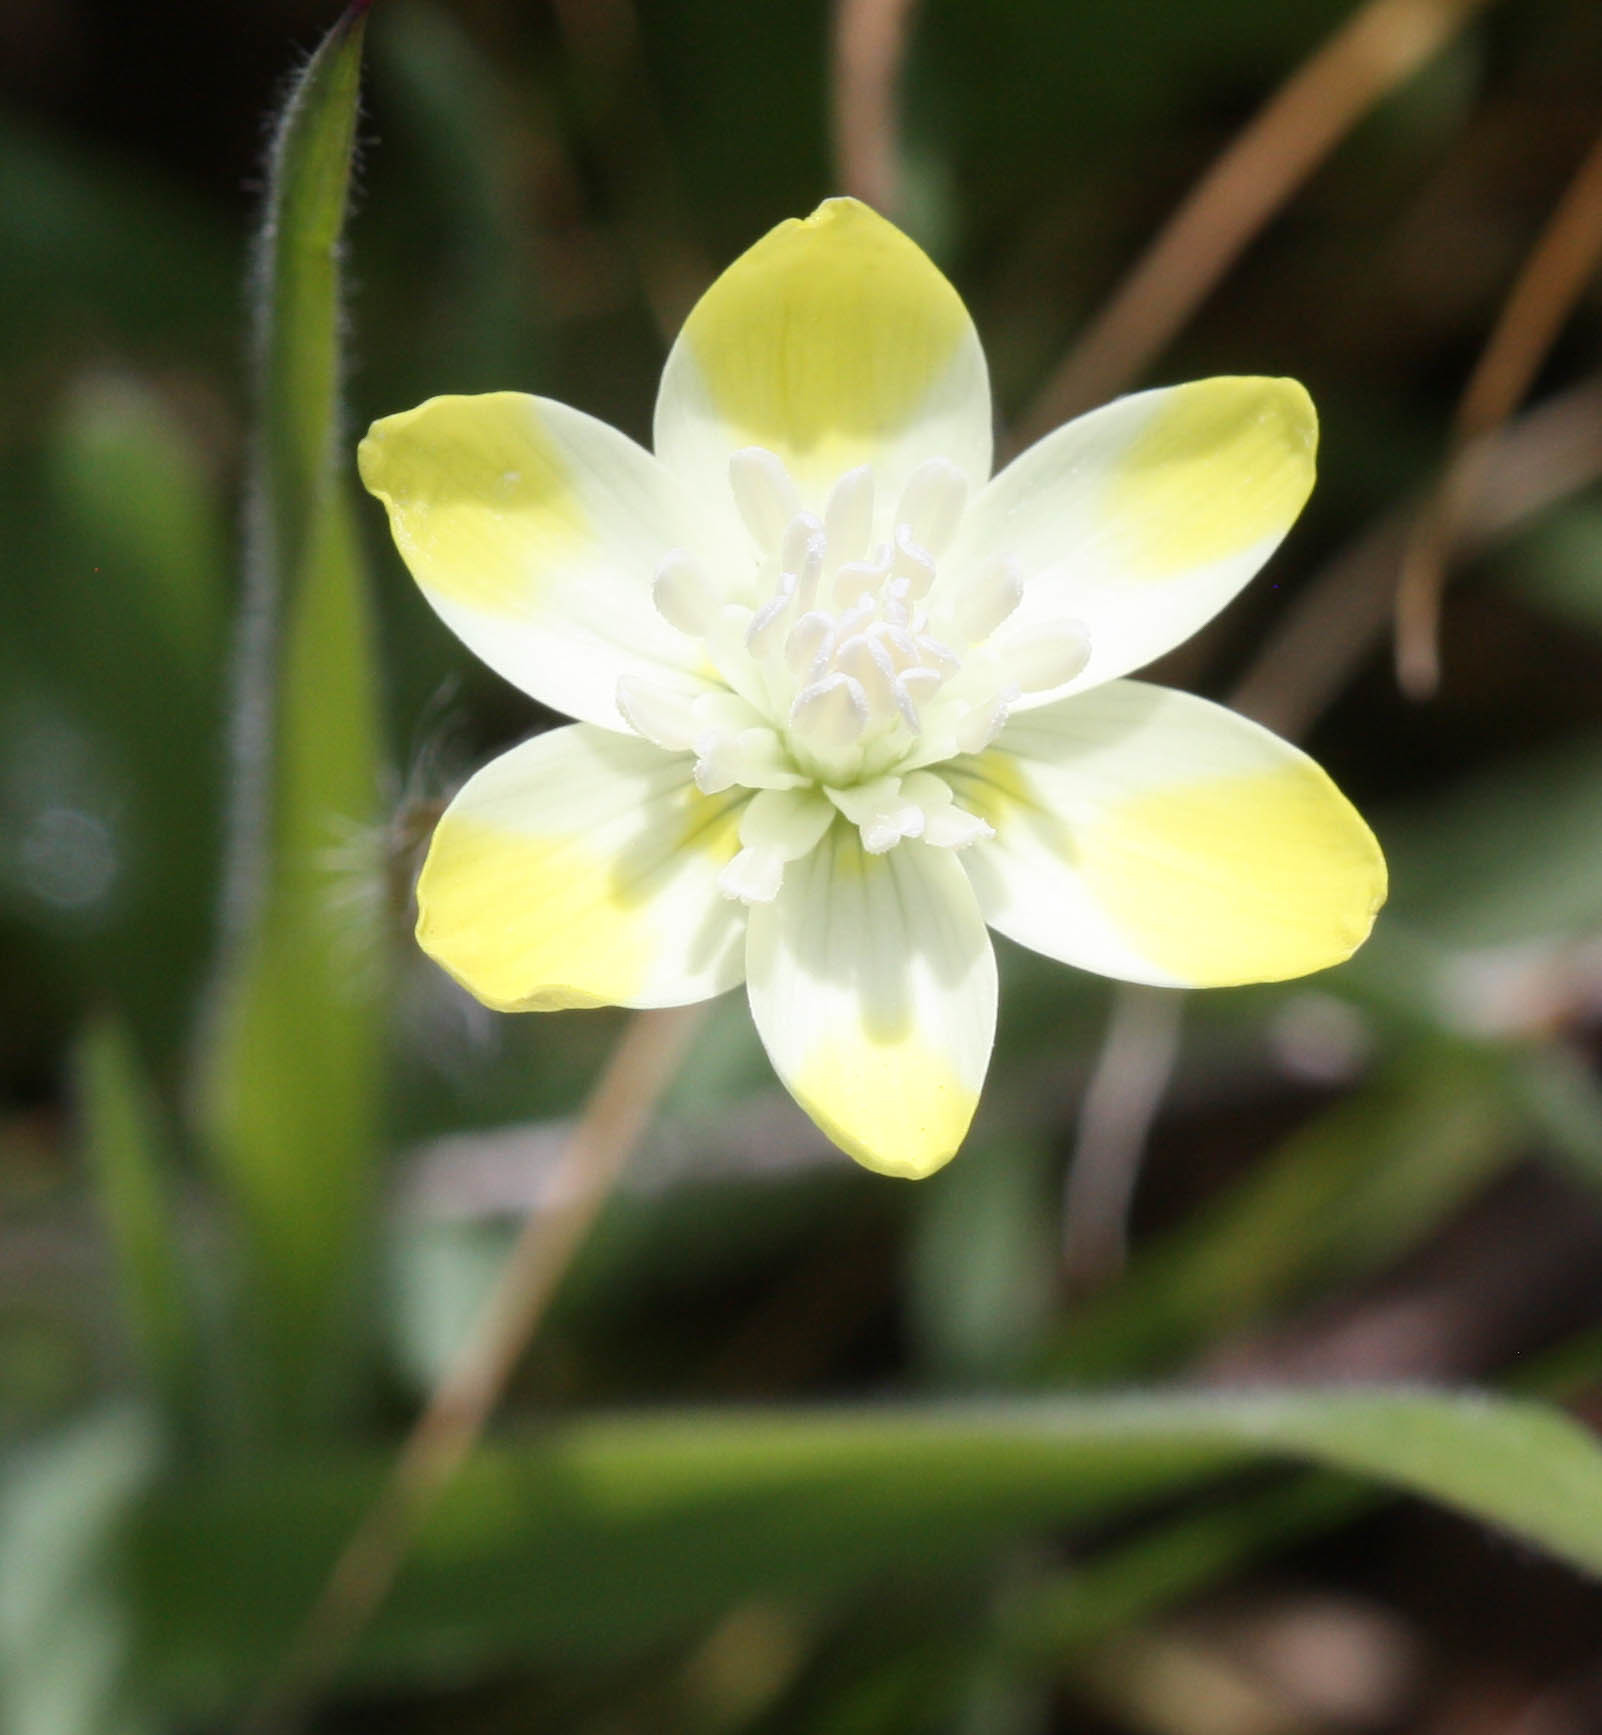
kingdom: Plantae
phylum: Tracheophyta
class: Magnoliopsida
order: Ranunculales
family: Papaveraceae
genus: Platystemon
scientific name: Platystemon californicus
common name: Cream-cups
